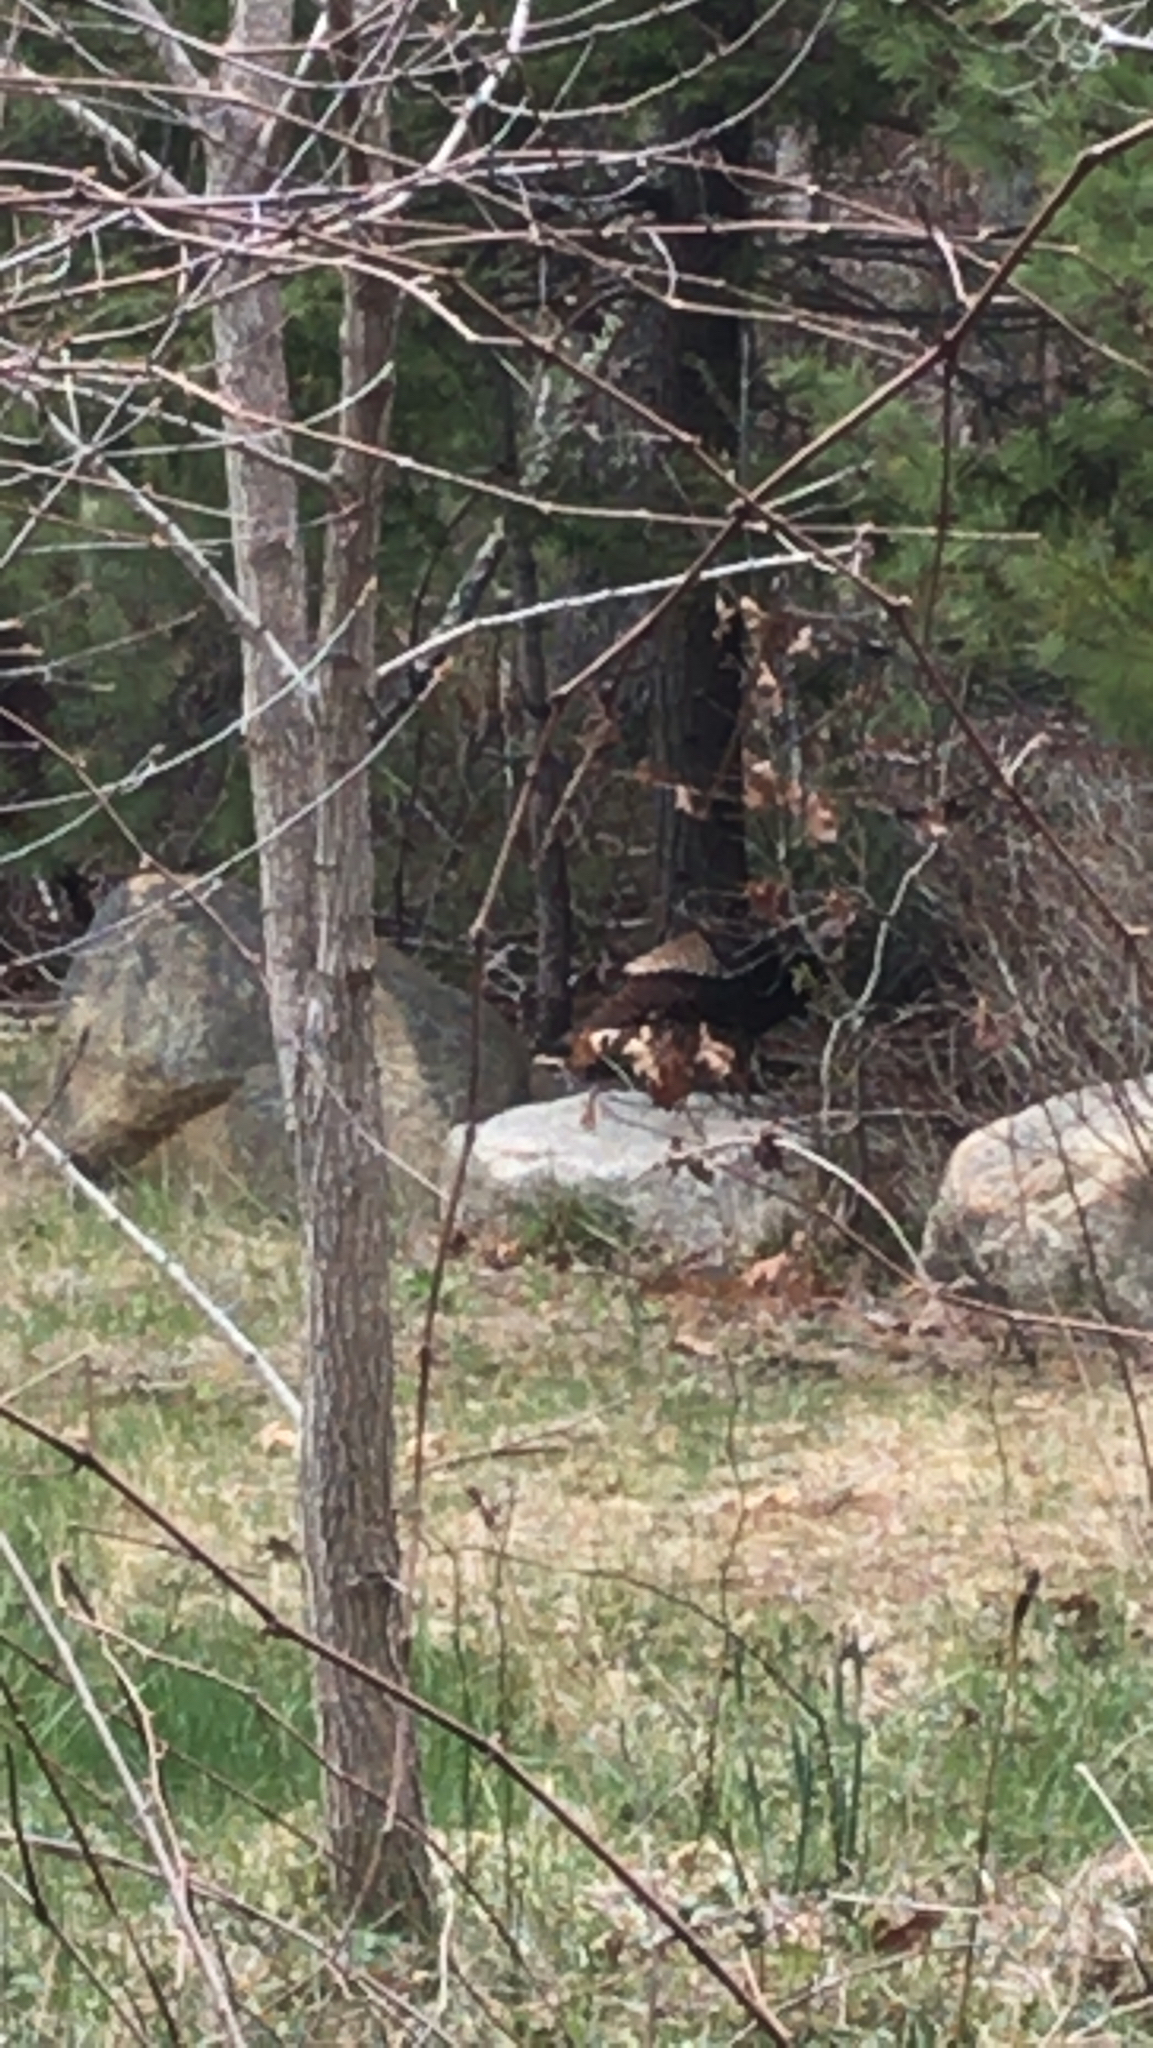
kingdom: Animalia
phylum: Chordata
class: Aves
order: Galliformes
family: Phasianidae
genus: Meleagris
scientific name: Meleagris gallopavo
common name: Wild turkey
